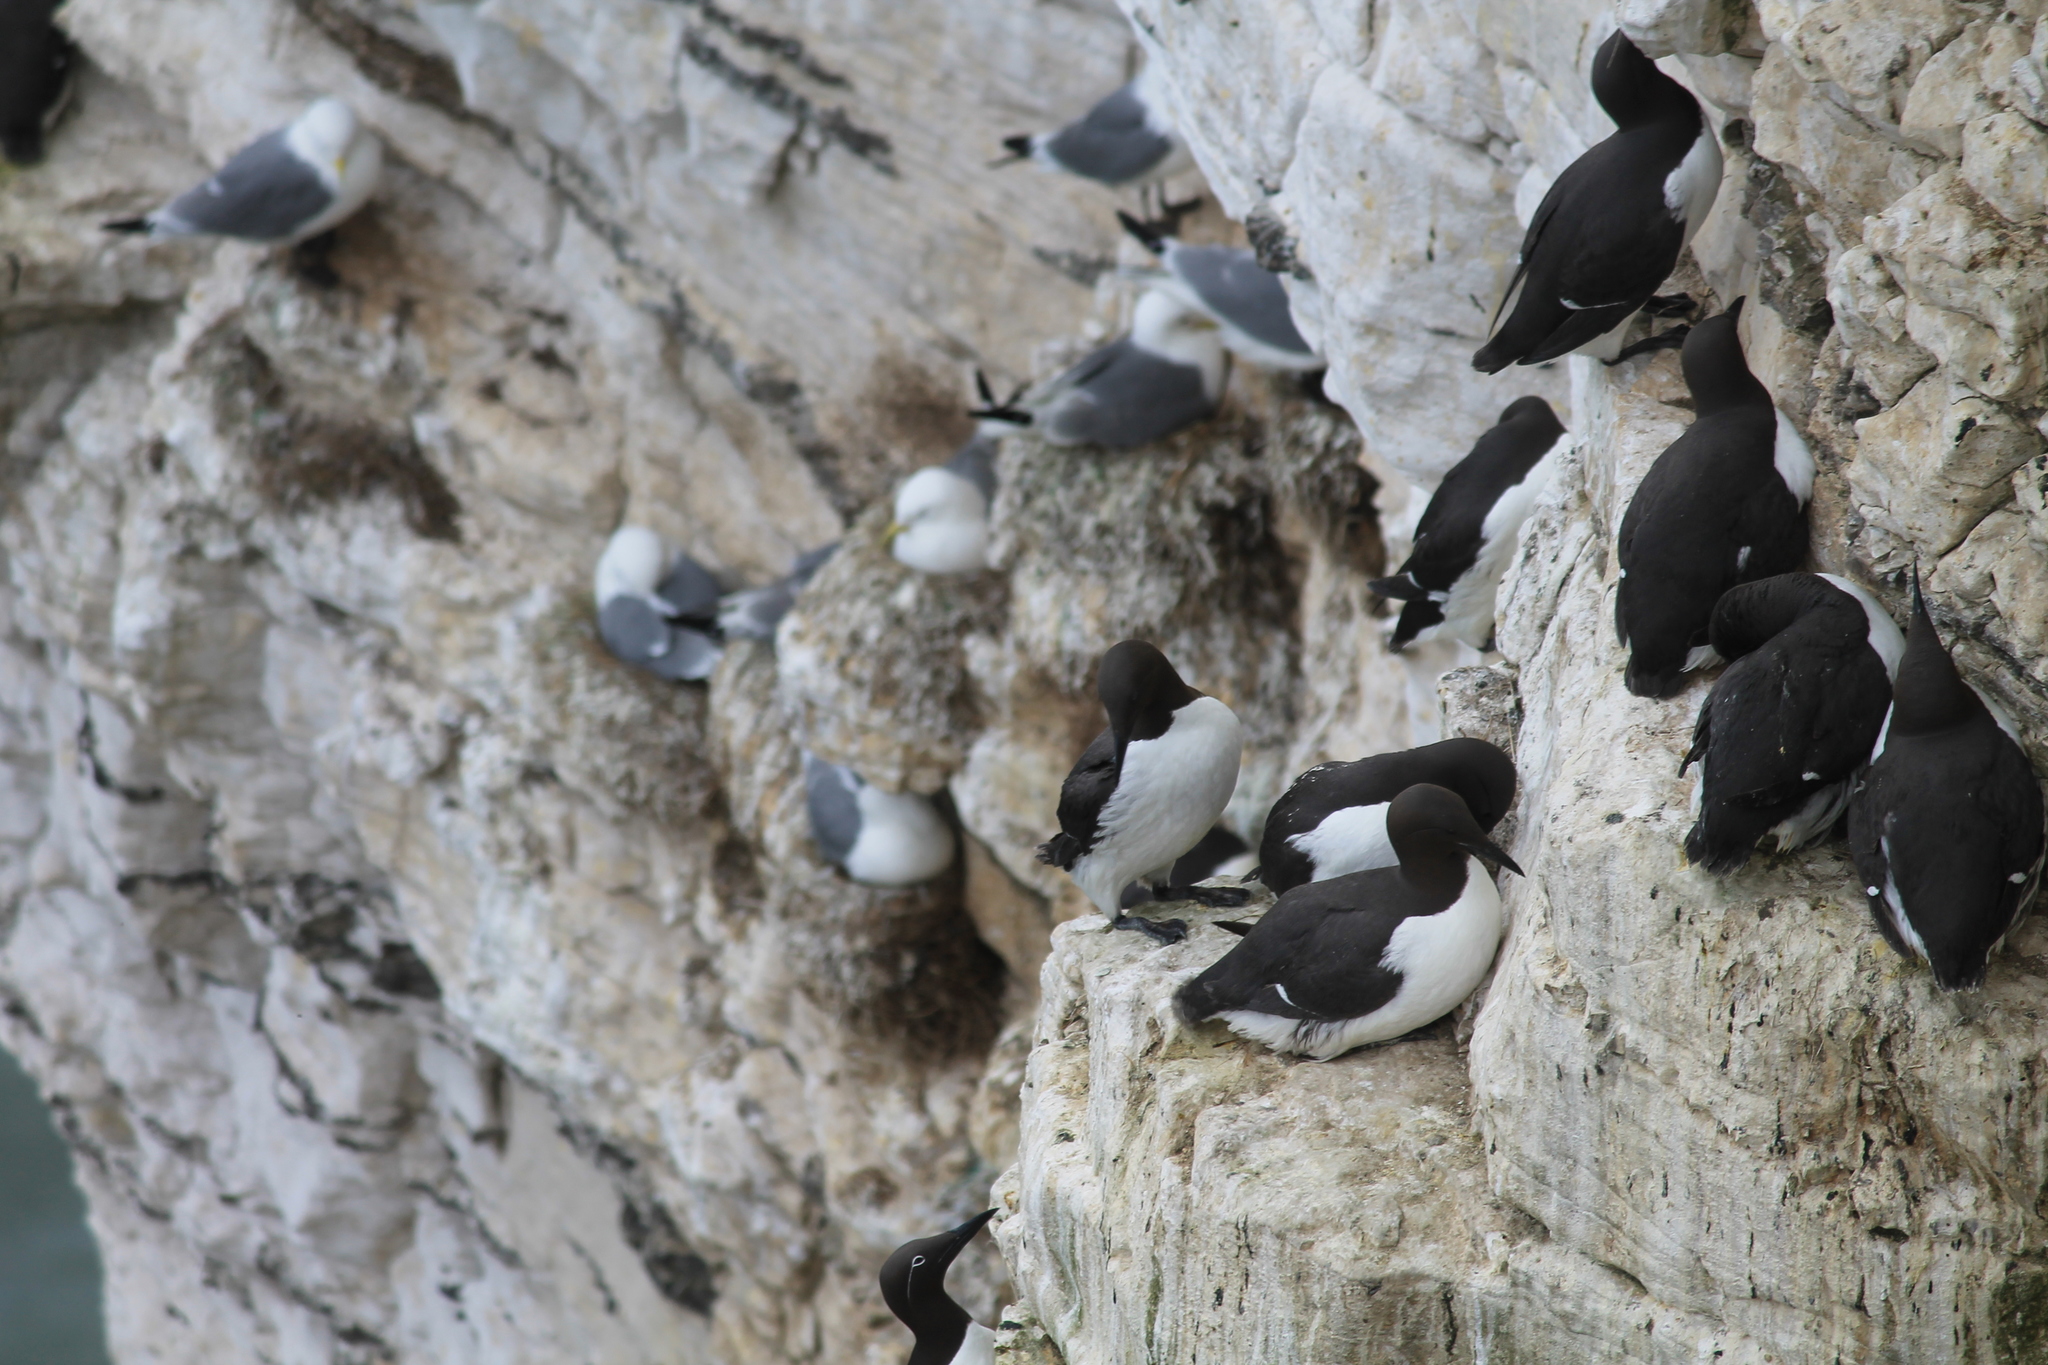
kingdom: Animalia
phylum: Chordata
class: Aves
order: Charadriiformes
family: Alcidae
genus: Uria
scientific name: Uria aalge
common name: Common murre
